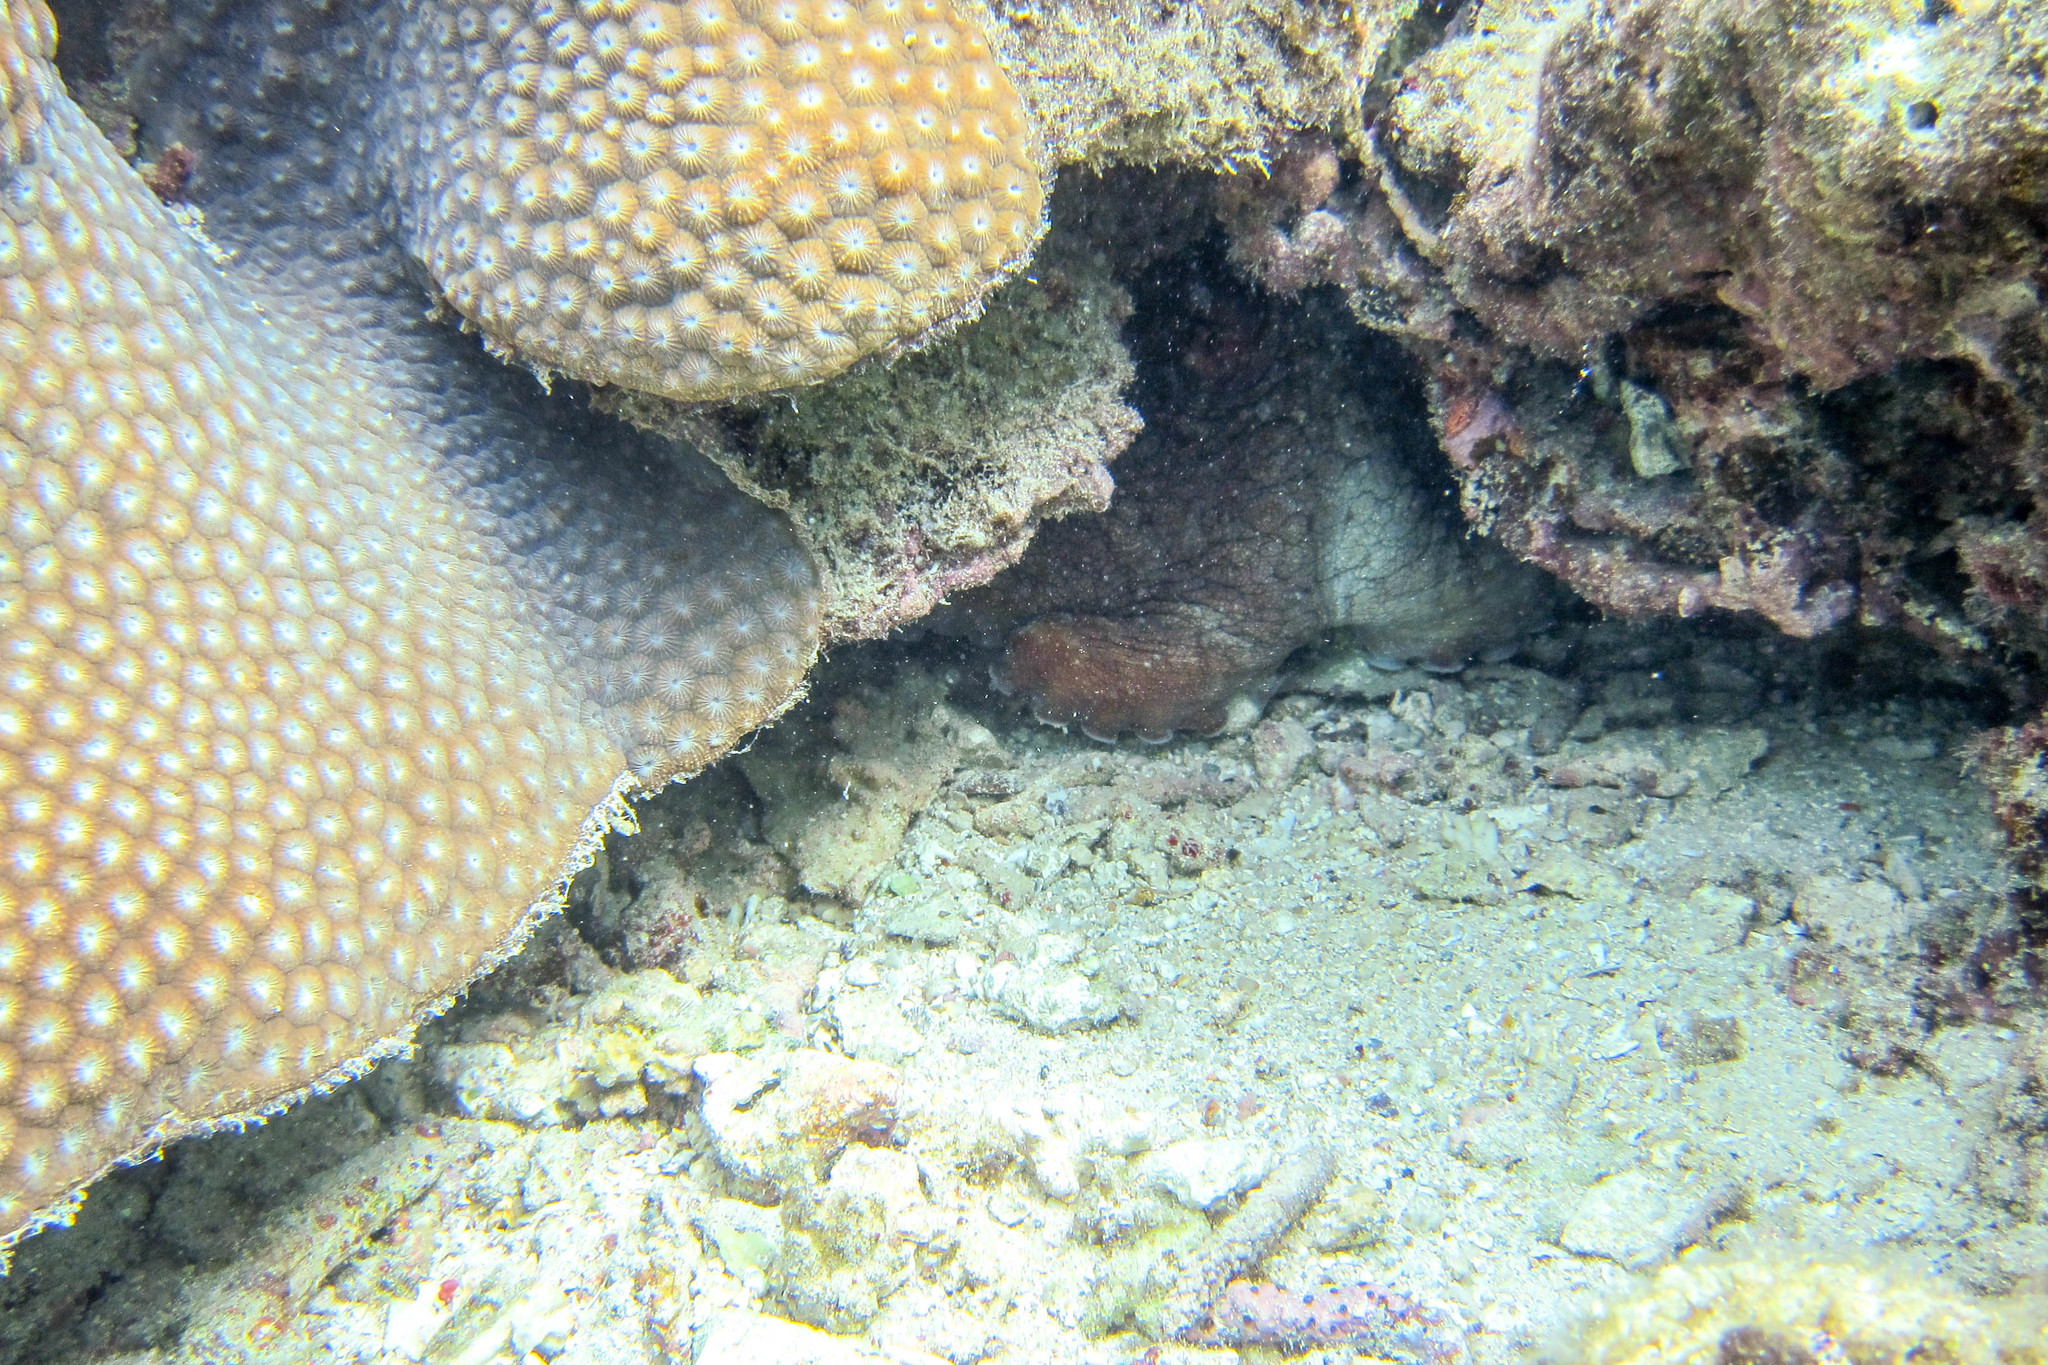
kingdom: Animalia
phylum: Mollusca
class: Cephalopoda
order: Octopoda
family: Octopodidae
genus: Octopus
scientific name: Octopus cyanea
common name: Cyane's octopus
